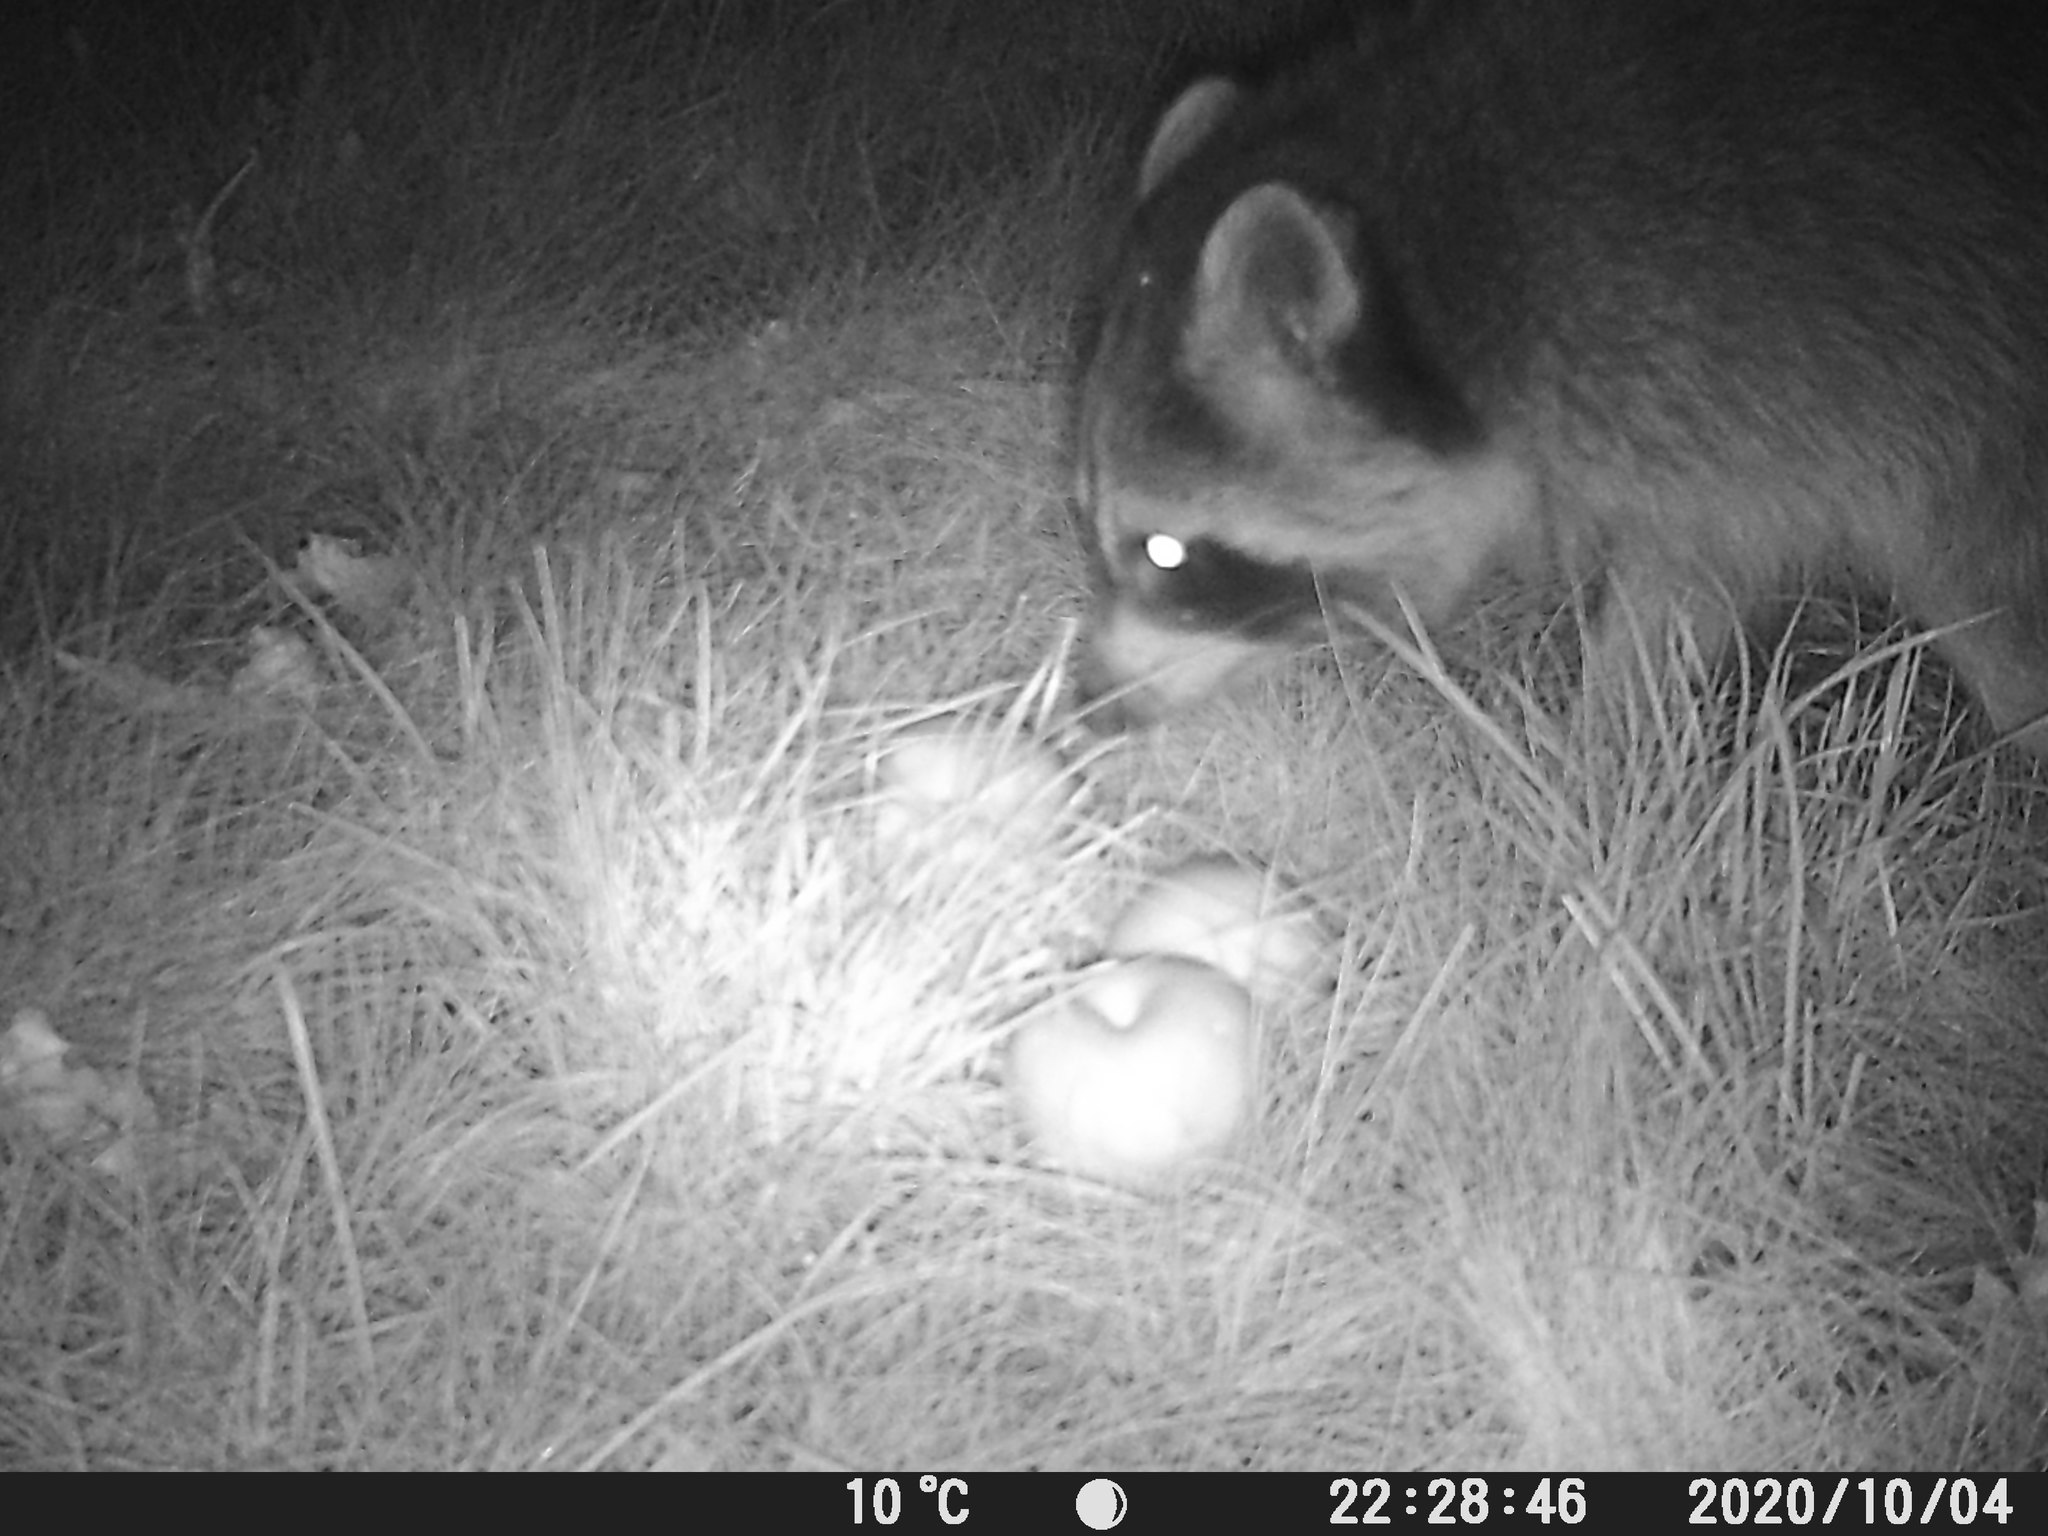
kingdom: Animalia
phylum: Chordata
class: Mammalia
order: Carnivora
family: Procyonidae
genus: Procyon
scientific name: Procyon lotor
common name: Raccoon
